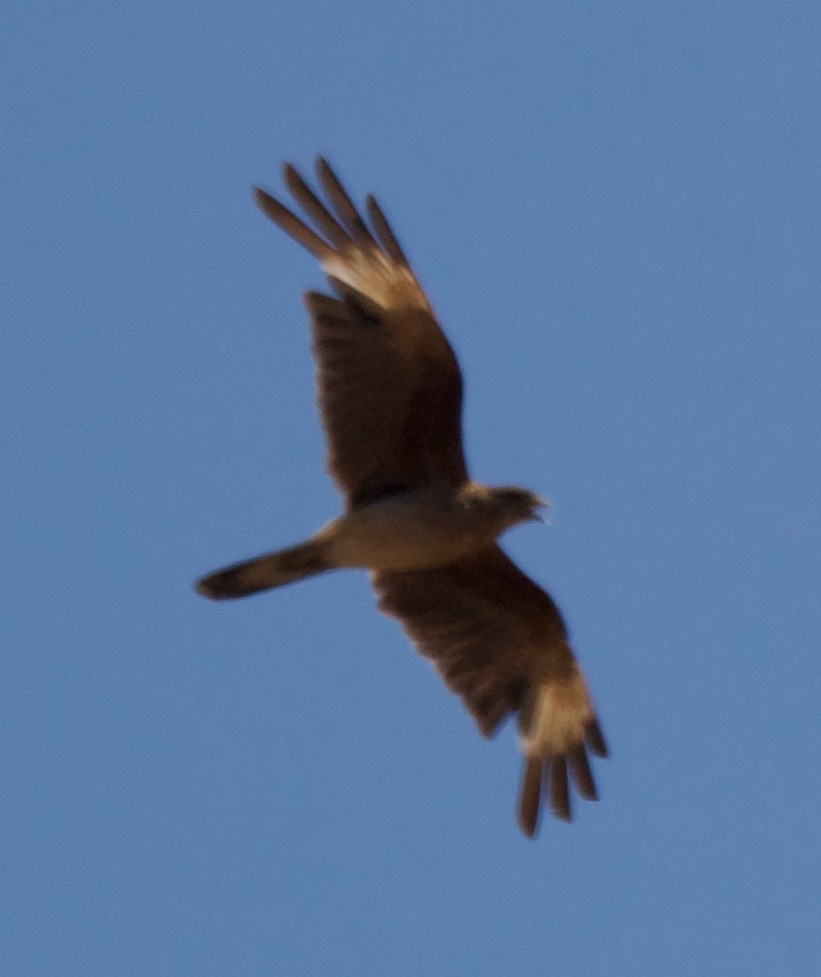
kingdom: Animalia
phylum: Chordata
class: Aves
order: Falconiformes
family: Falconidae
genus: Daptrius
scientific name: Daptrius
